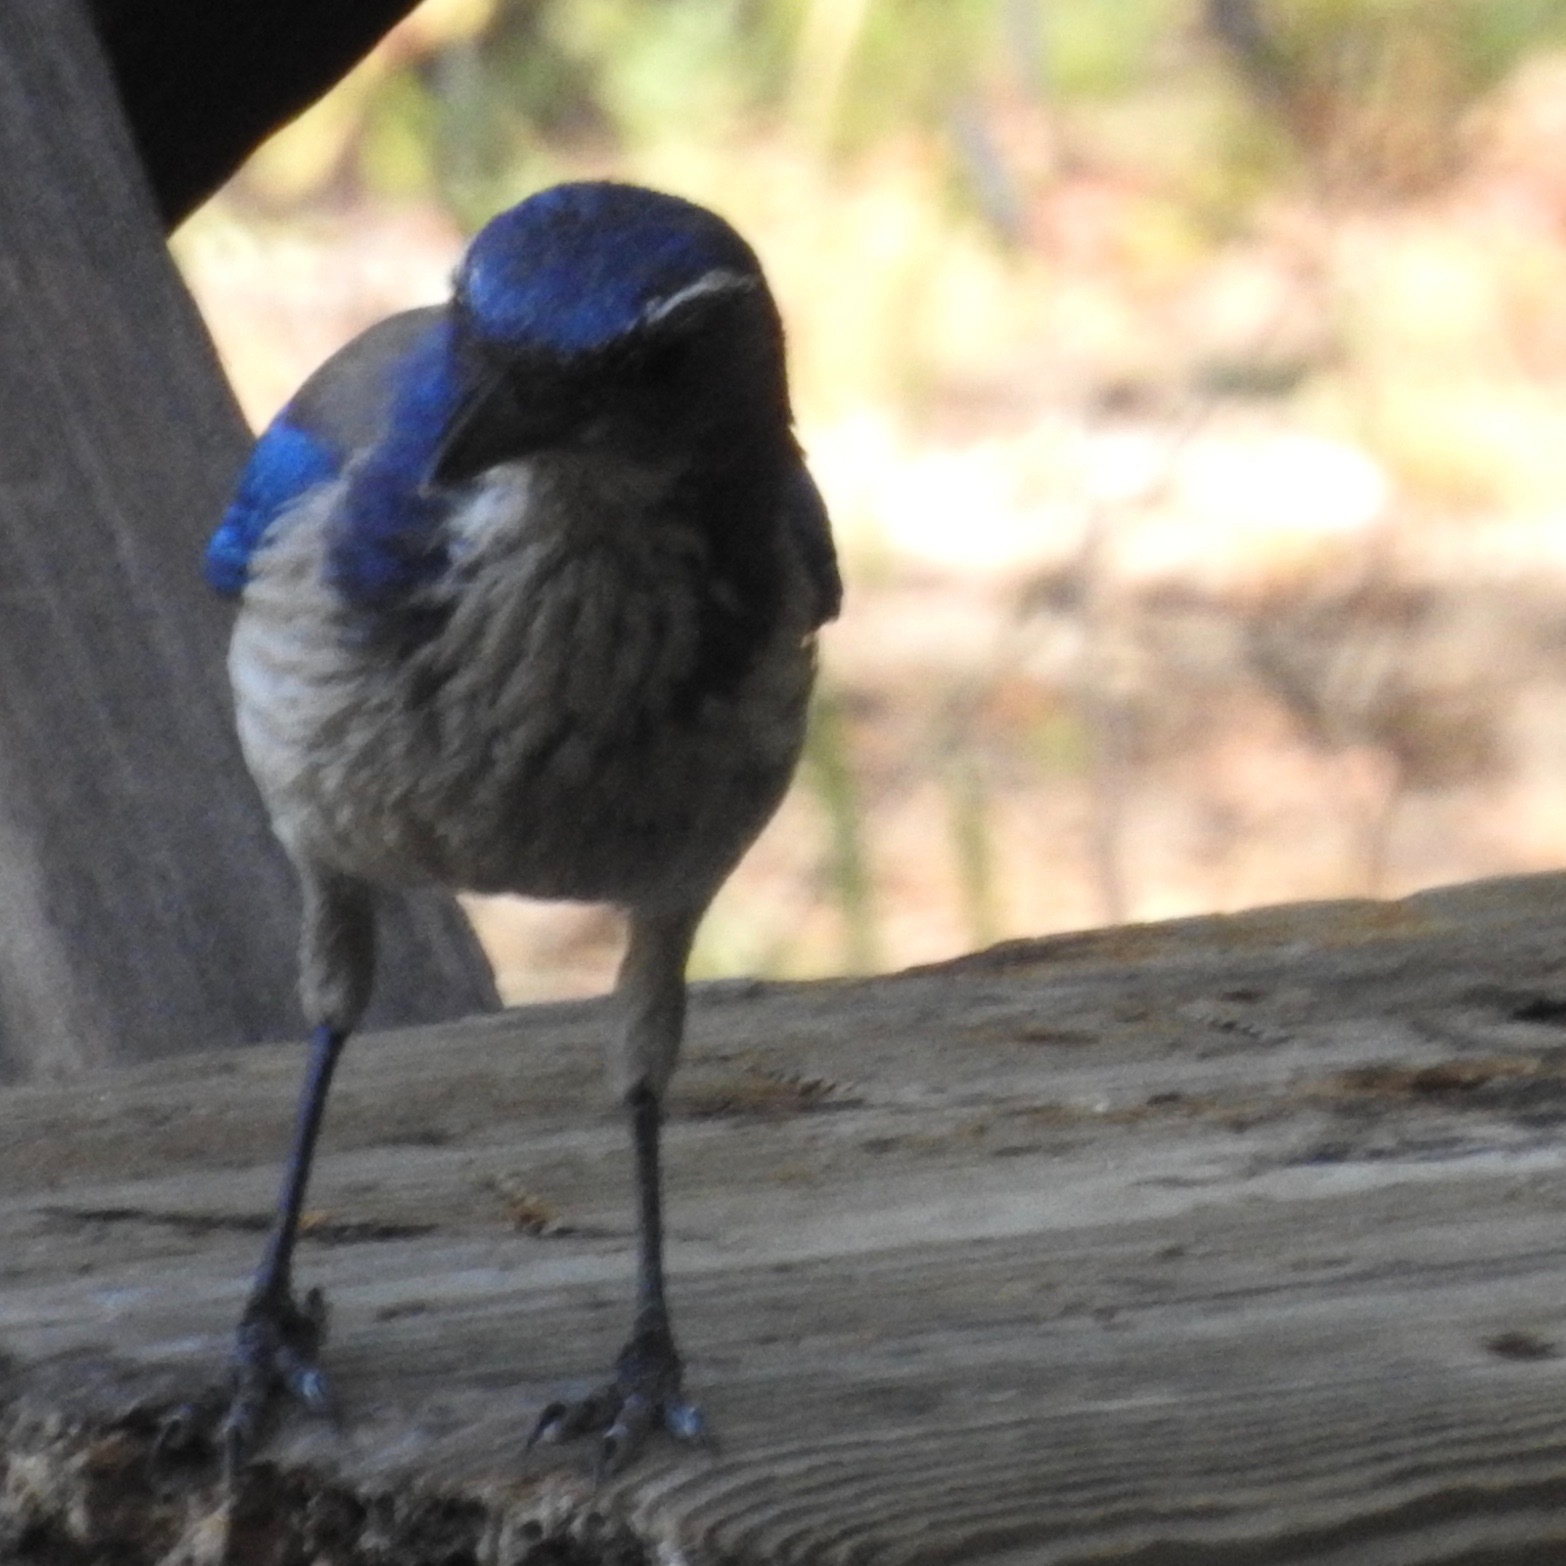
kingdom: Animalia
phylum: Chordata
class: Aves
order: Passeriformes
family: Corvidae
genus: Aphelocoma
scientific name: Aphelocoma californica
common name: California scrub-jay
